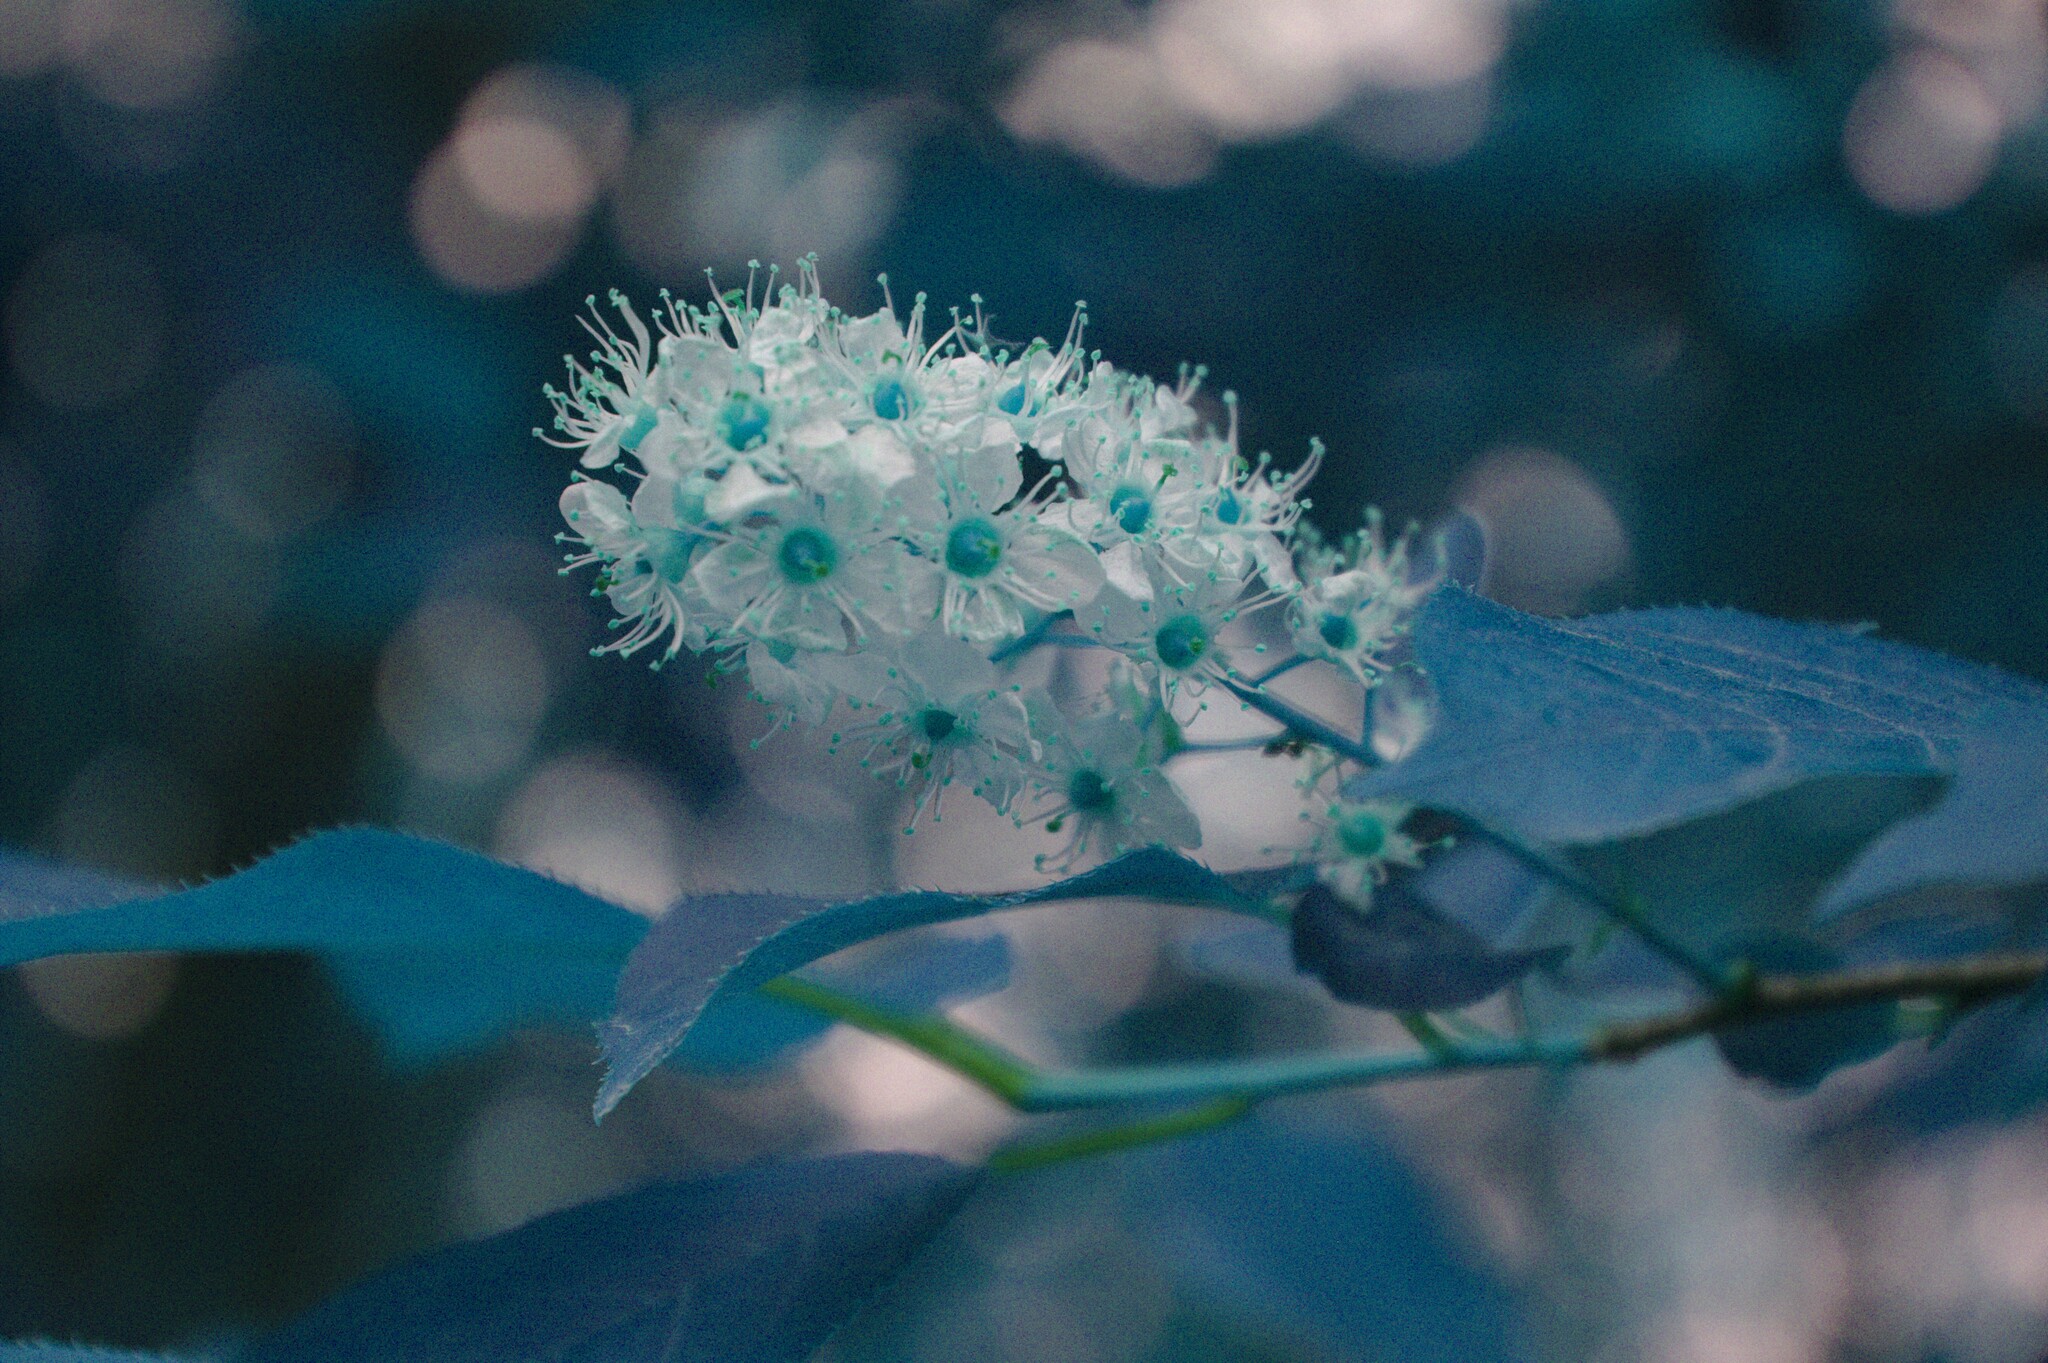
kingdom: Plantae
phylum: Tracheophyta
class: Magnoliopsida
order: Rosales
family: Rosaceae
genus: Prunus
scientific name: Prunus virginiana
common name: Chokecherry
